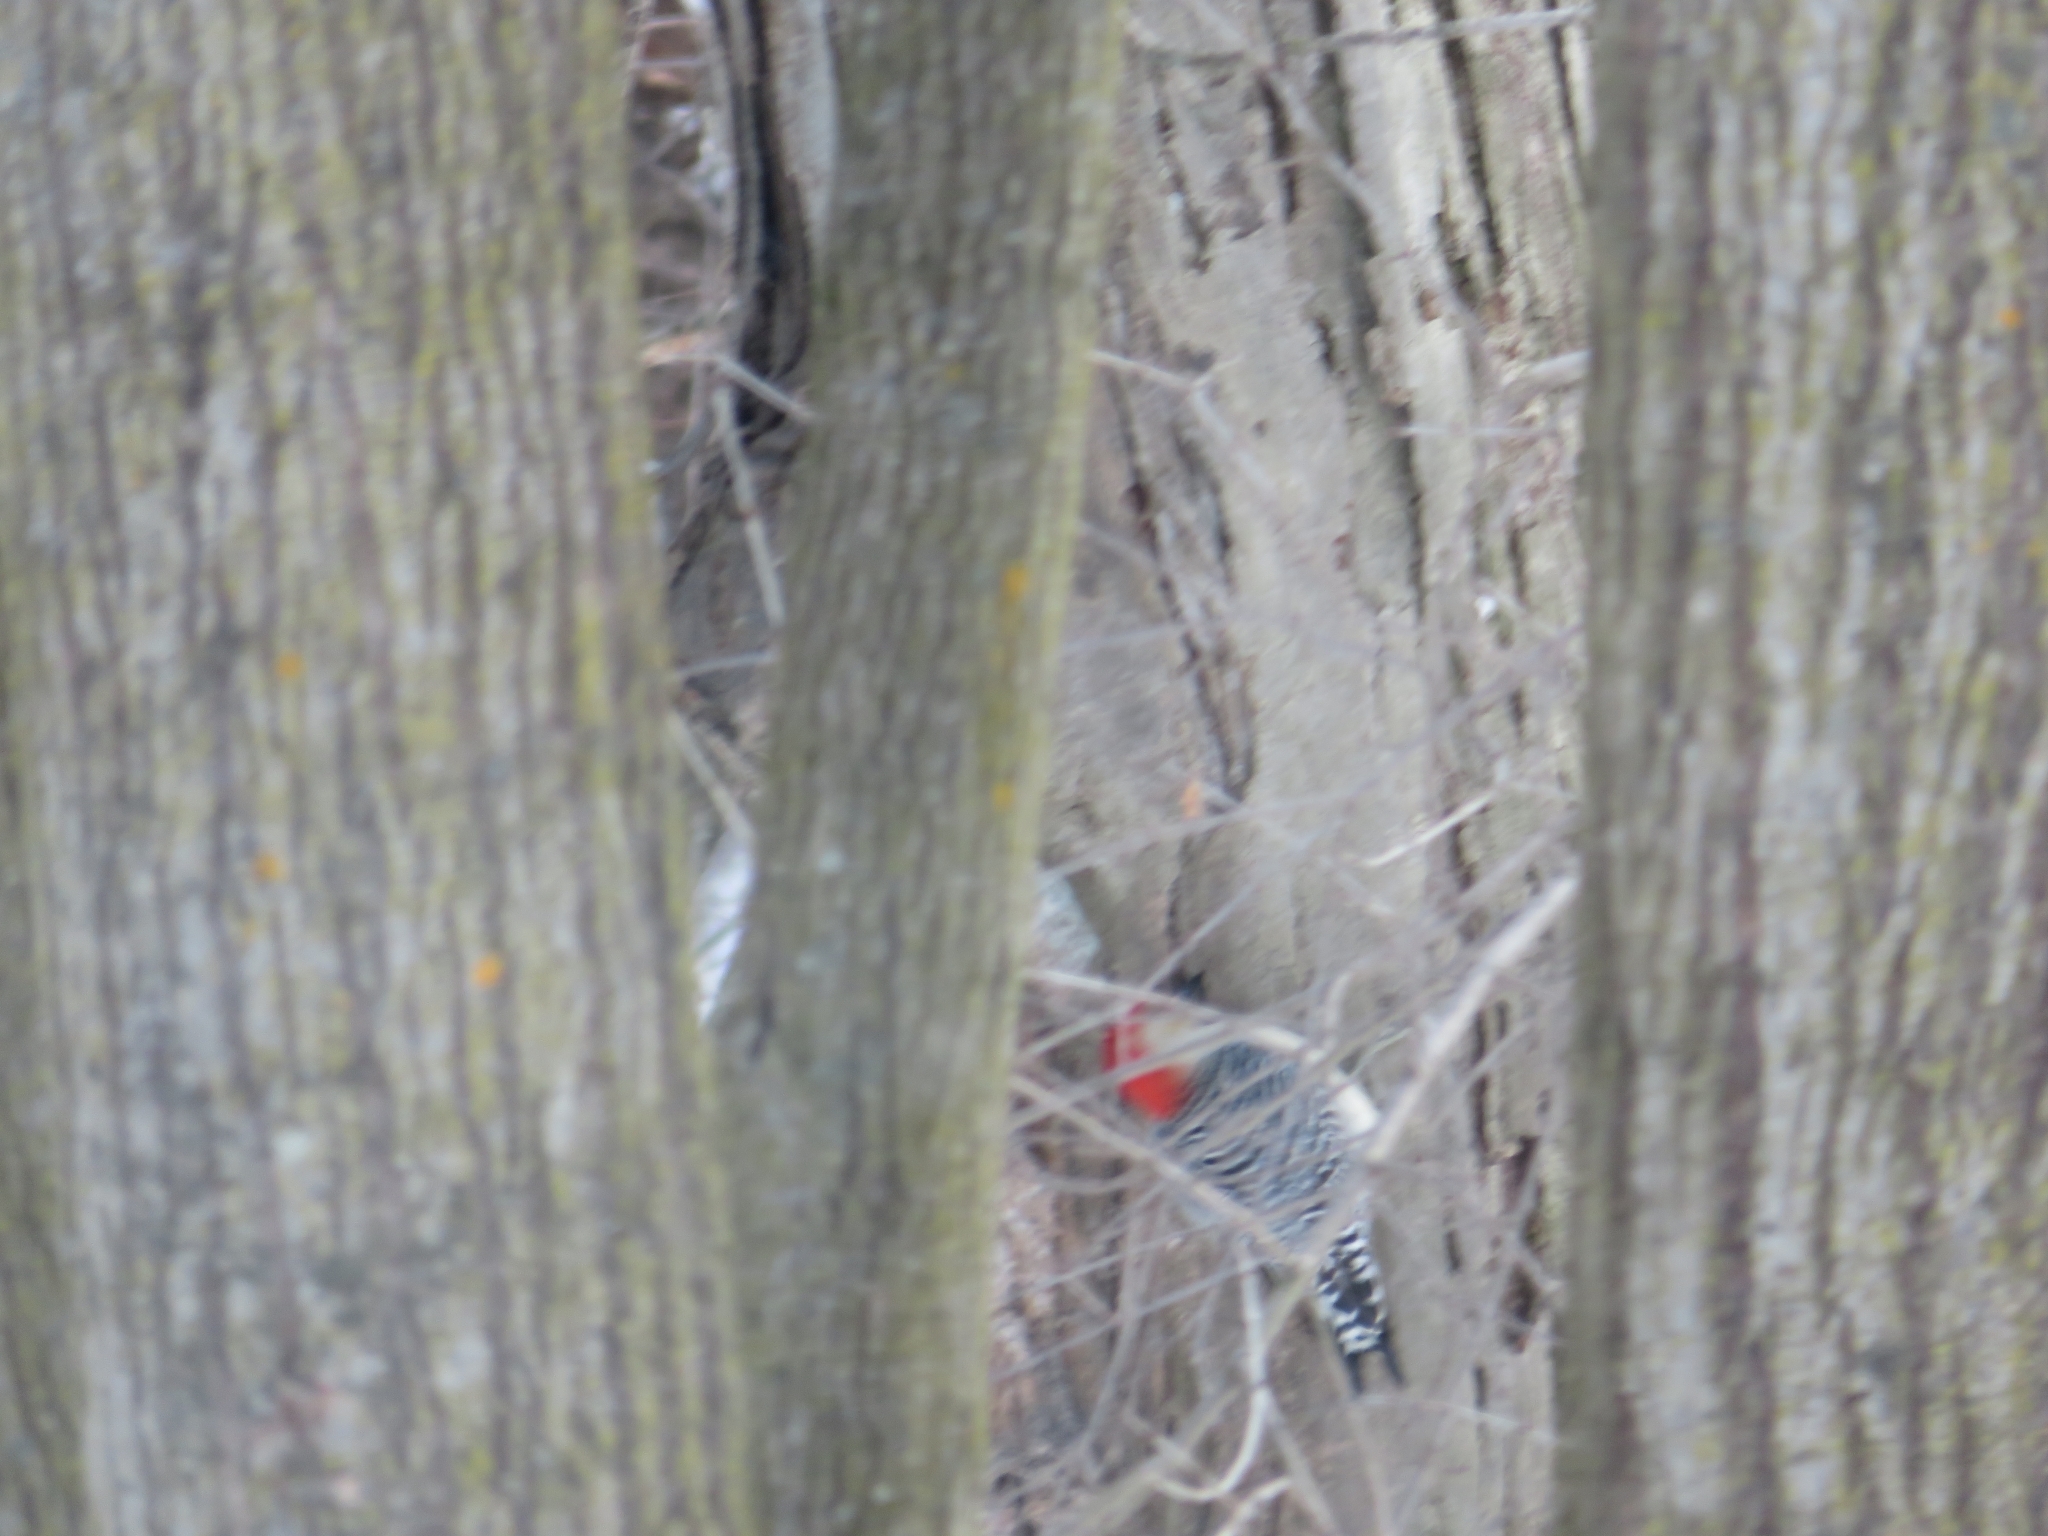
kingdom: Animalia
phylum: Chordata
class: Aves
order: Piciformes
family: Picidae
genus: Melanerpes
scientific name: Melanerpes carolinus
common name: Red-bellied woodpecker
